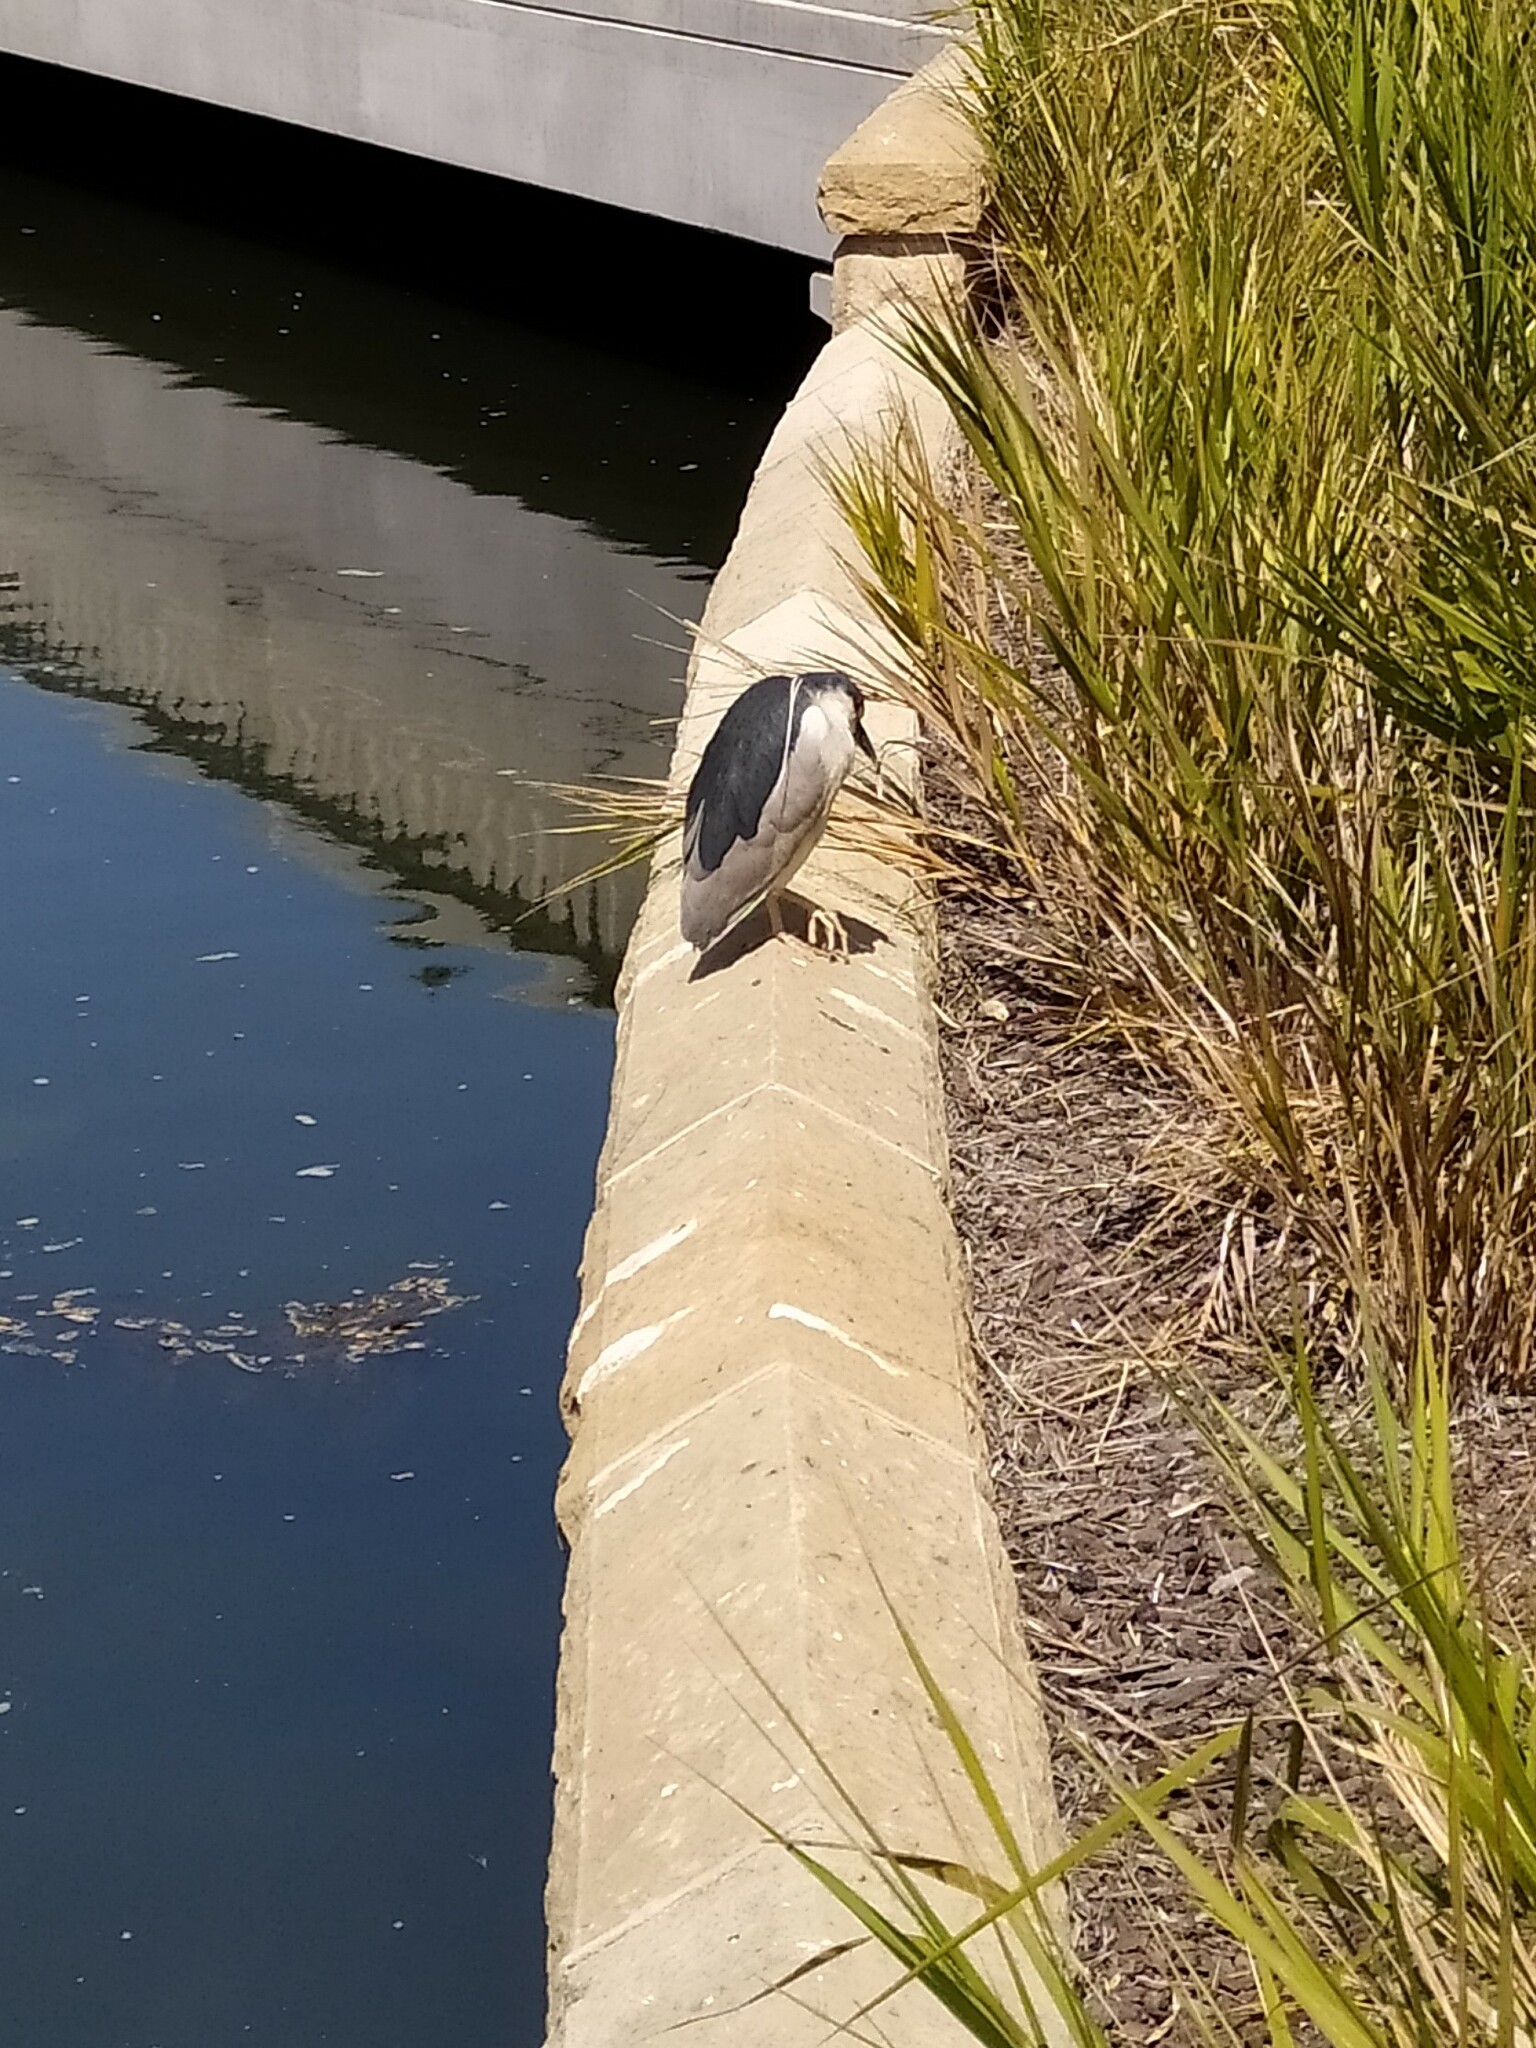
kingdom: Animalia
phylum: Chordata
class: Aves
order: Pelecaniformes
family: Ardeidae
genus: Nycticorax
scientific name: Nycticorax nycticorax
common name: Black-crowned night heron
